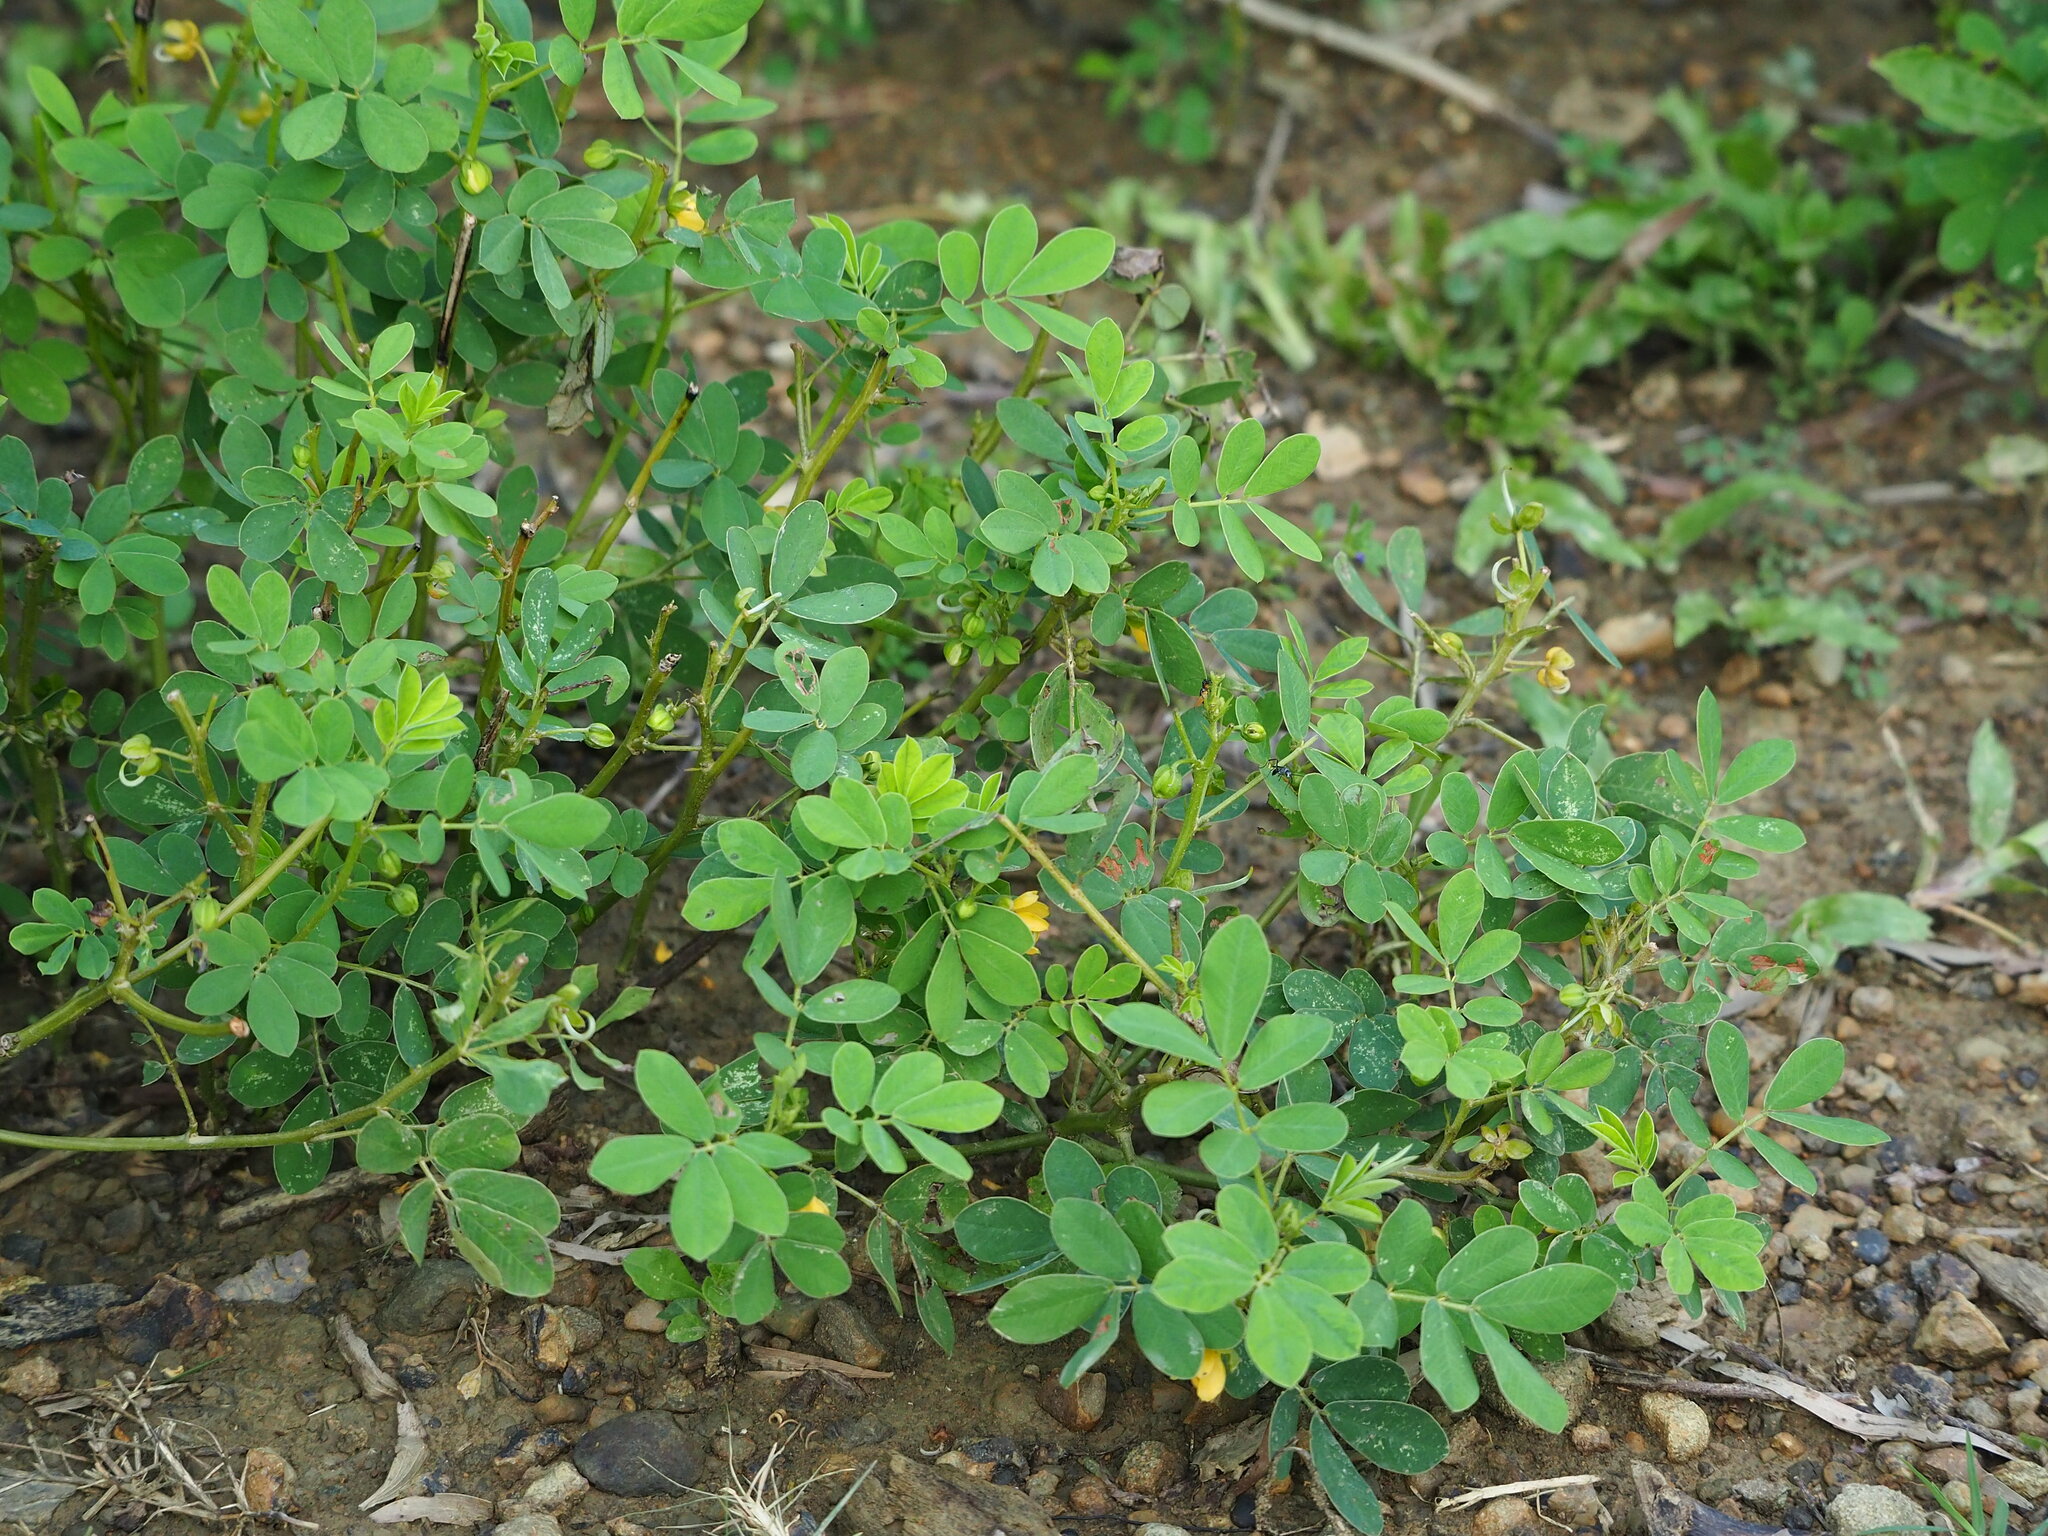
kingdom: Plantae
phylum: Tracheophyta
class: Magnoliopsida
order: Fabales
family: Fabaceae
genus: Senna
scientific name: Senna obtusifolia
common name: Java-bean
